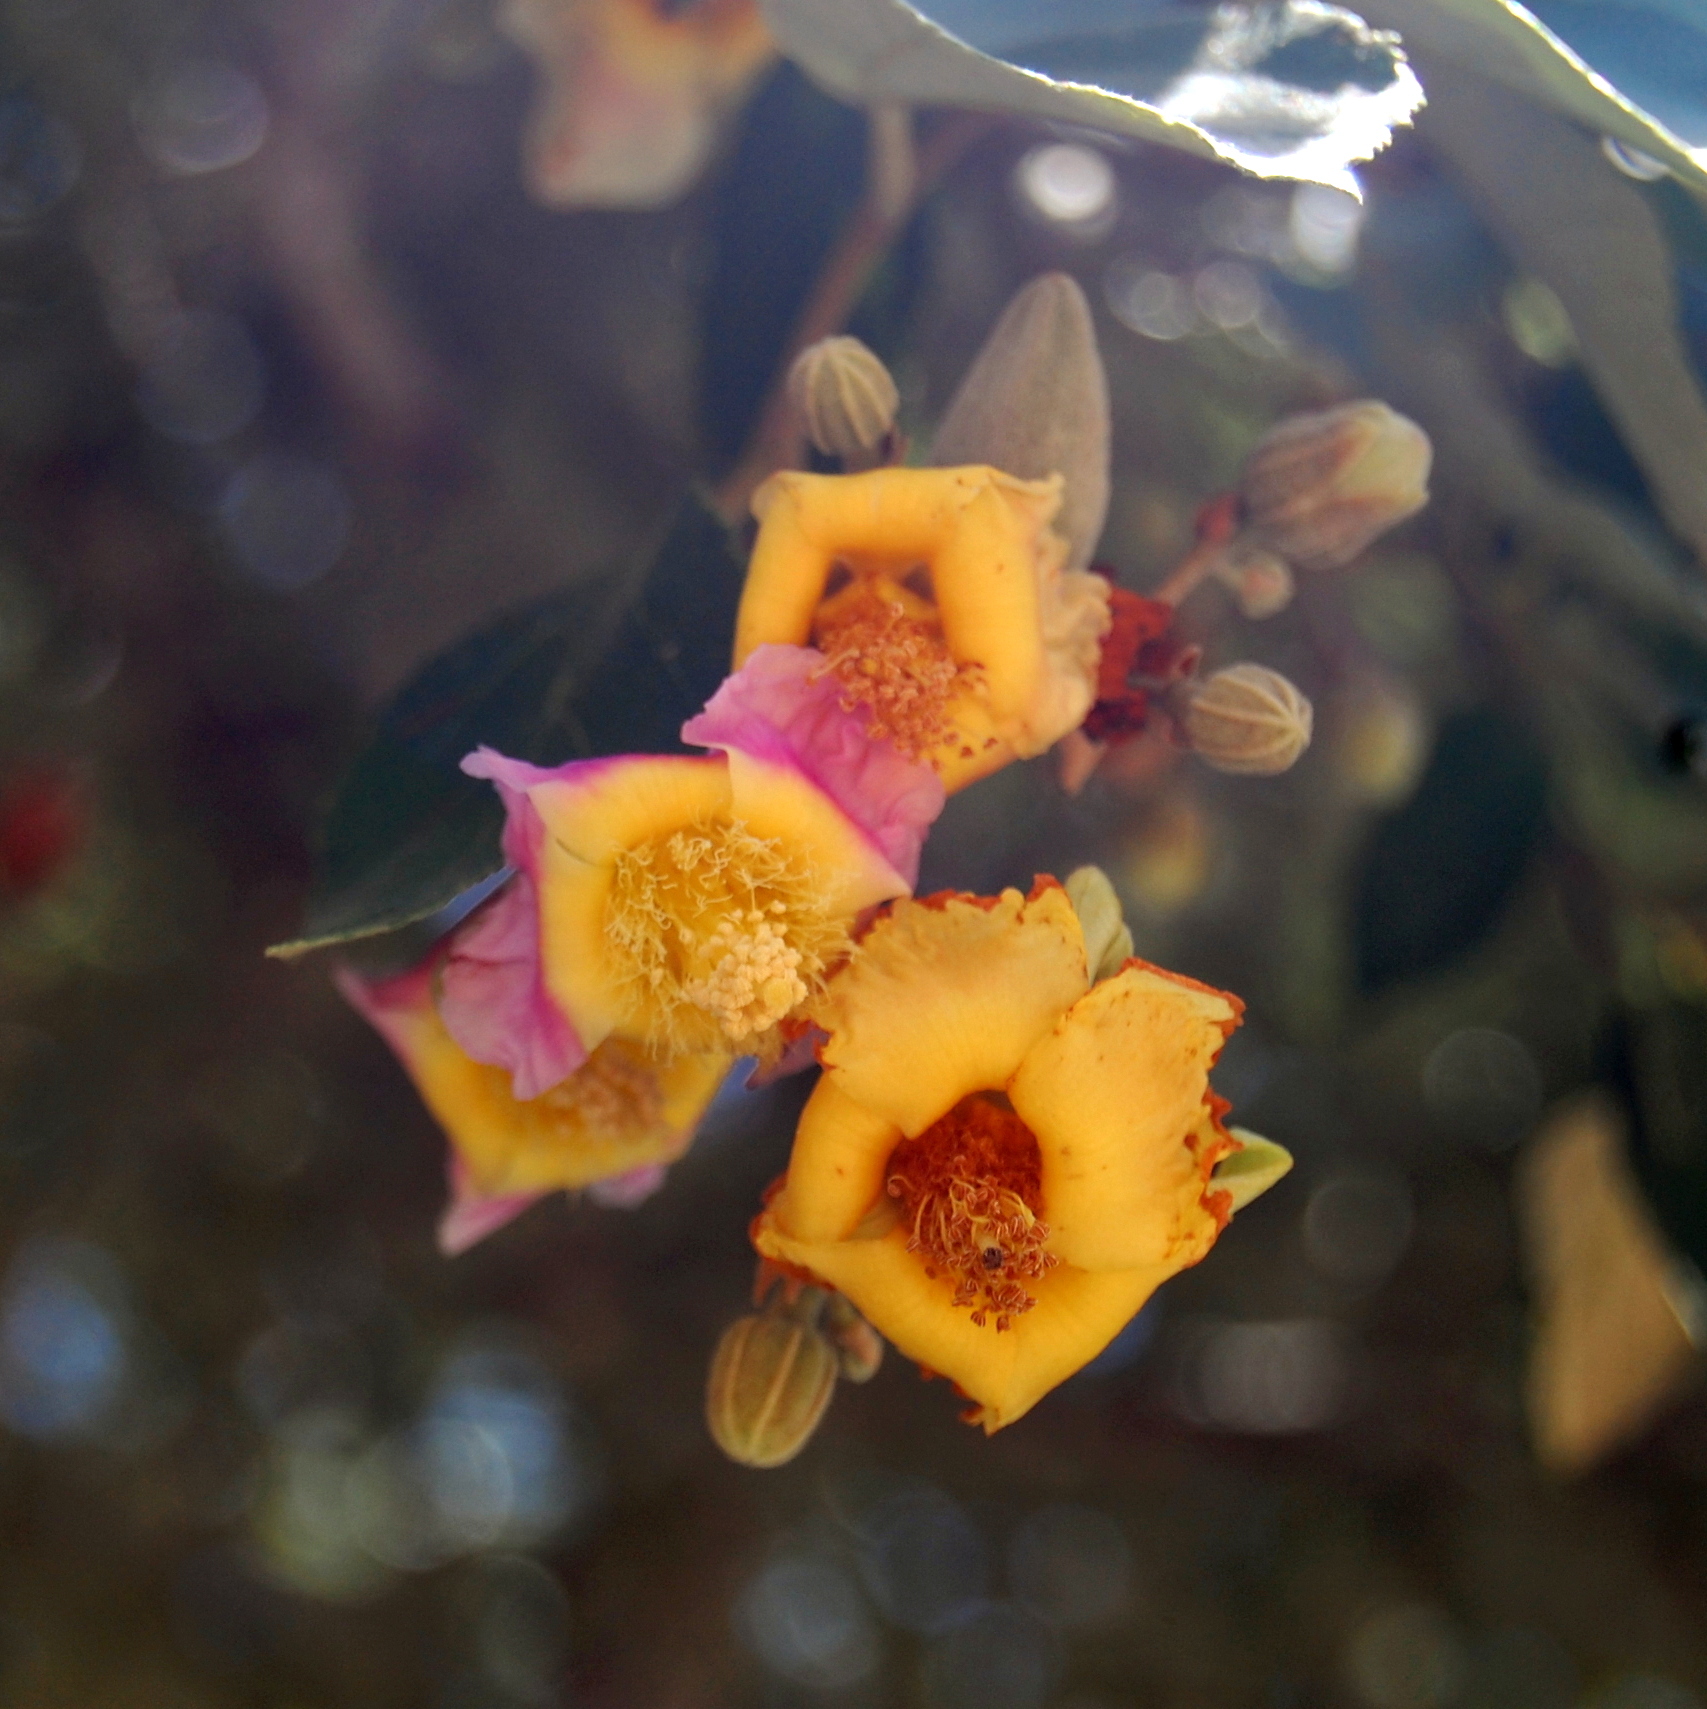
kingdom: Plantae
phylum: Tracheophyta
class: Magnoliopsida
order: Malvales
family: Malvaceae
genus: Luehea
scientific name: Luehea divaricata
